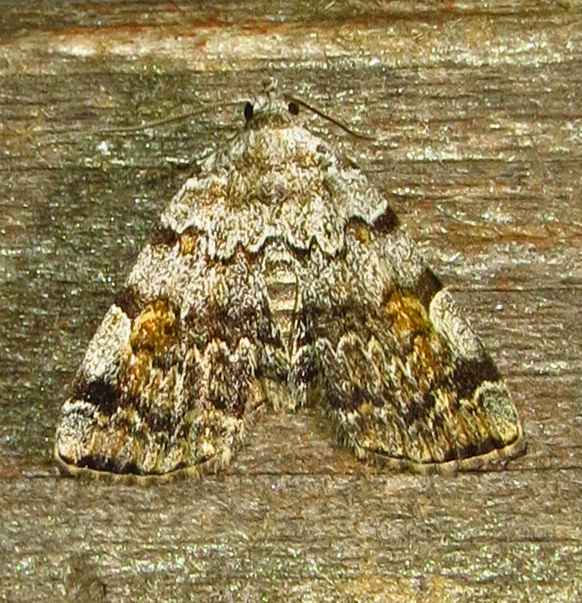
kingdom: Animalia
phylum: Arthropoda
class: Insecta
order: Lepidoptera
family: Erebidae
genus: Idia
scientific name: Idia americalis
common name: American idia moth
